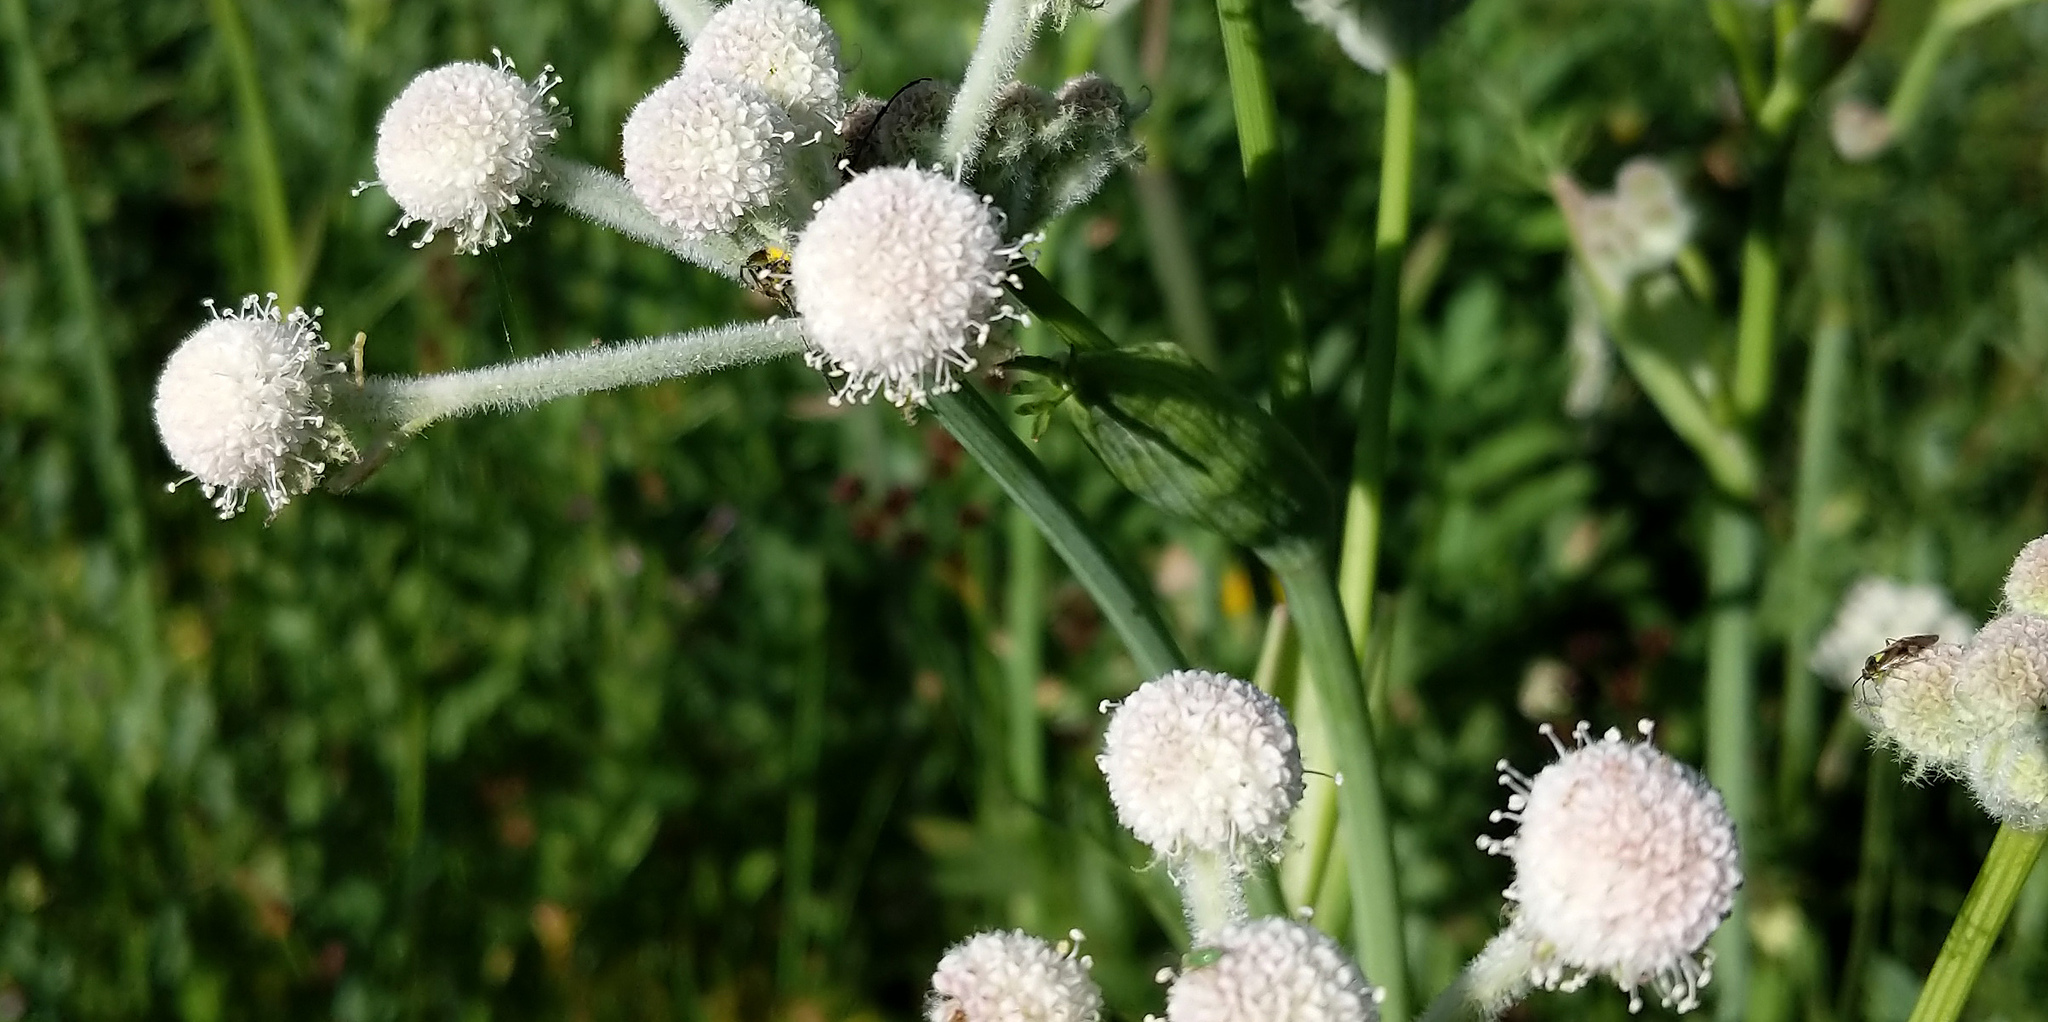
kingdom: Plantae
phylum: Tracheophyta
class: Magnoliopsida
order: Apiales
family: Apiaceae
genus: Angelica
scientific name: Angelica capitellata
